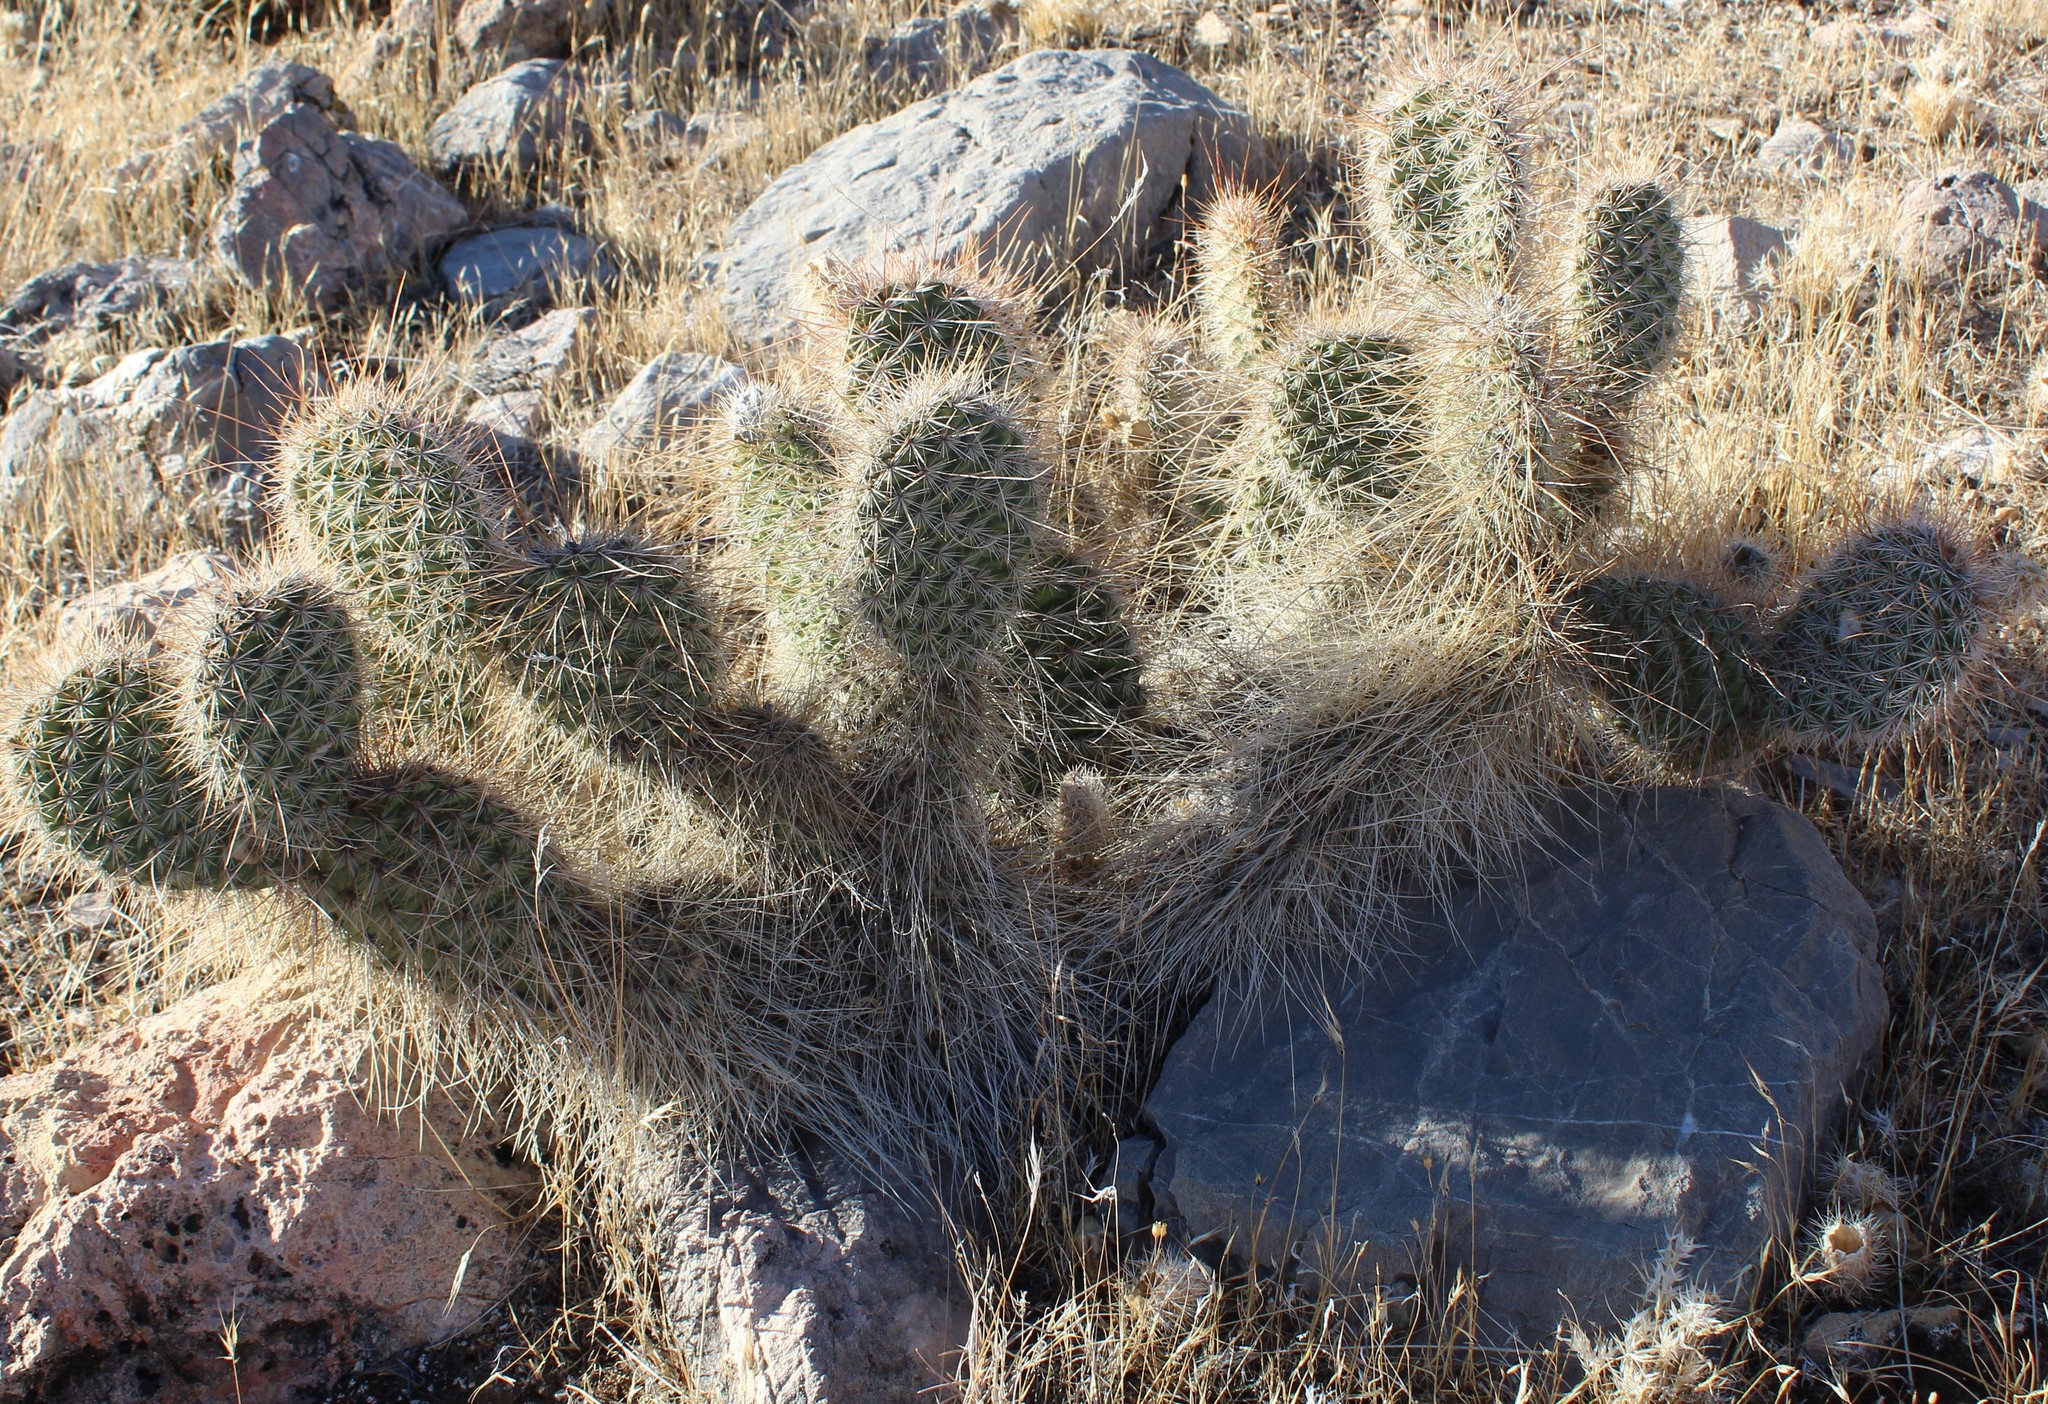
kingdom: Plantae
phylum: Tracheophyta
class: Magnoliopsida
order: Caryophyllales
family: Cactaceae
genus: Opuntia
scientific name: Opuntia polyacantha
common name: Plains prickly-pear
